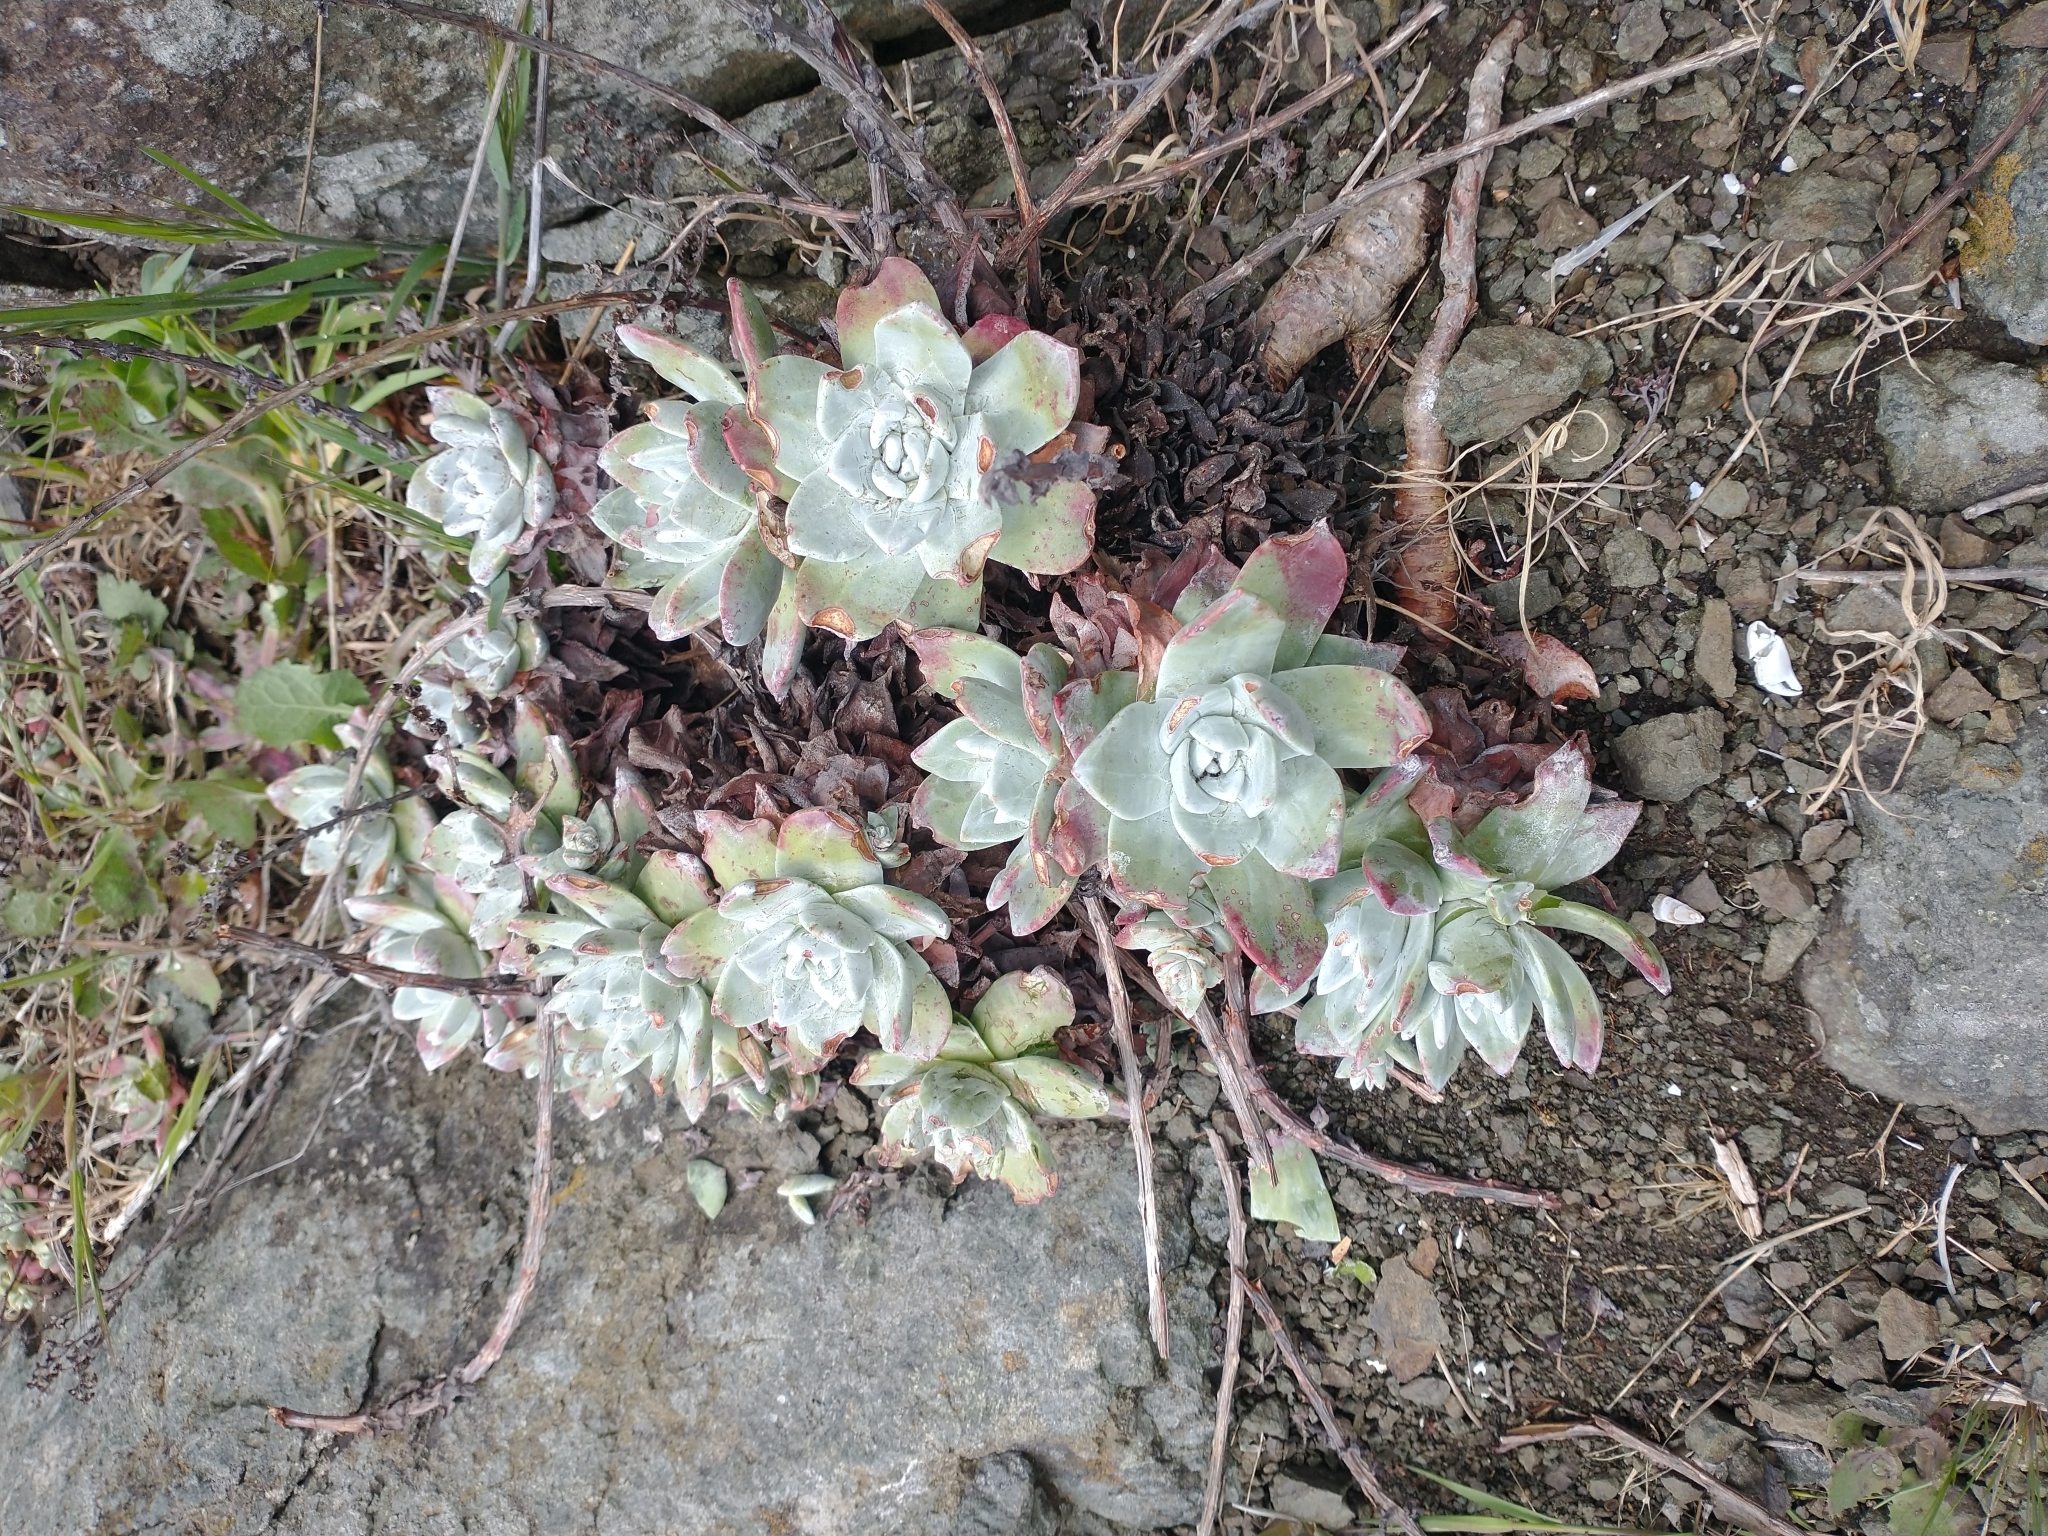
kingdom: Plantae
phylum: Tracheophyta
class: Magnoliopsida
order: Saxifragales
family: Crassulaceae
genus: Dudleya
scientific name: Dudleya farinosa
